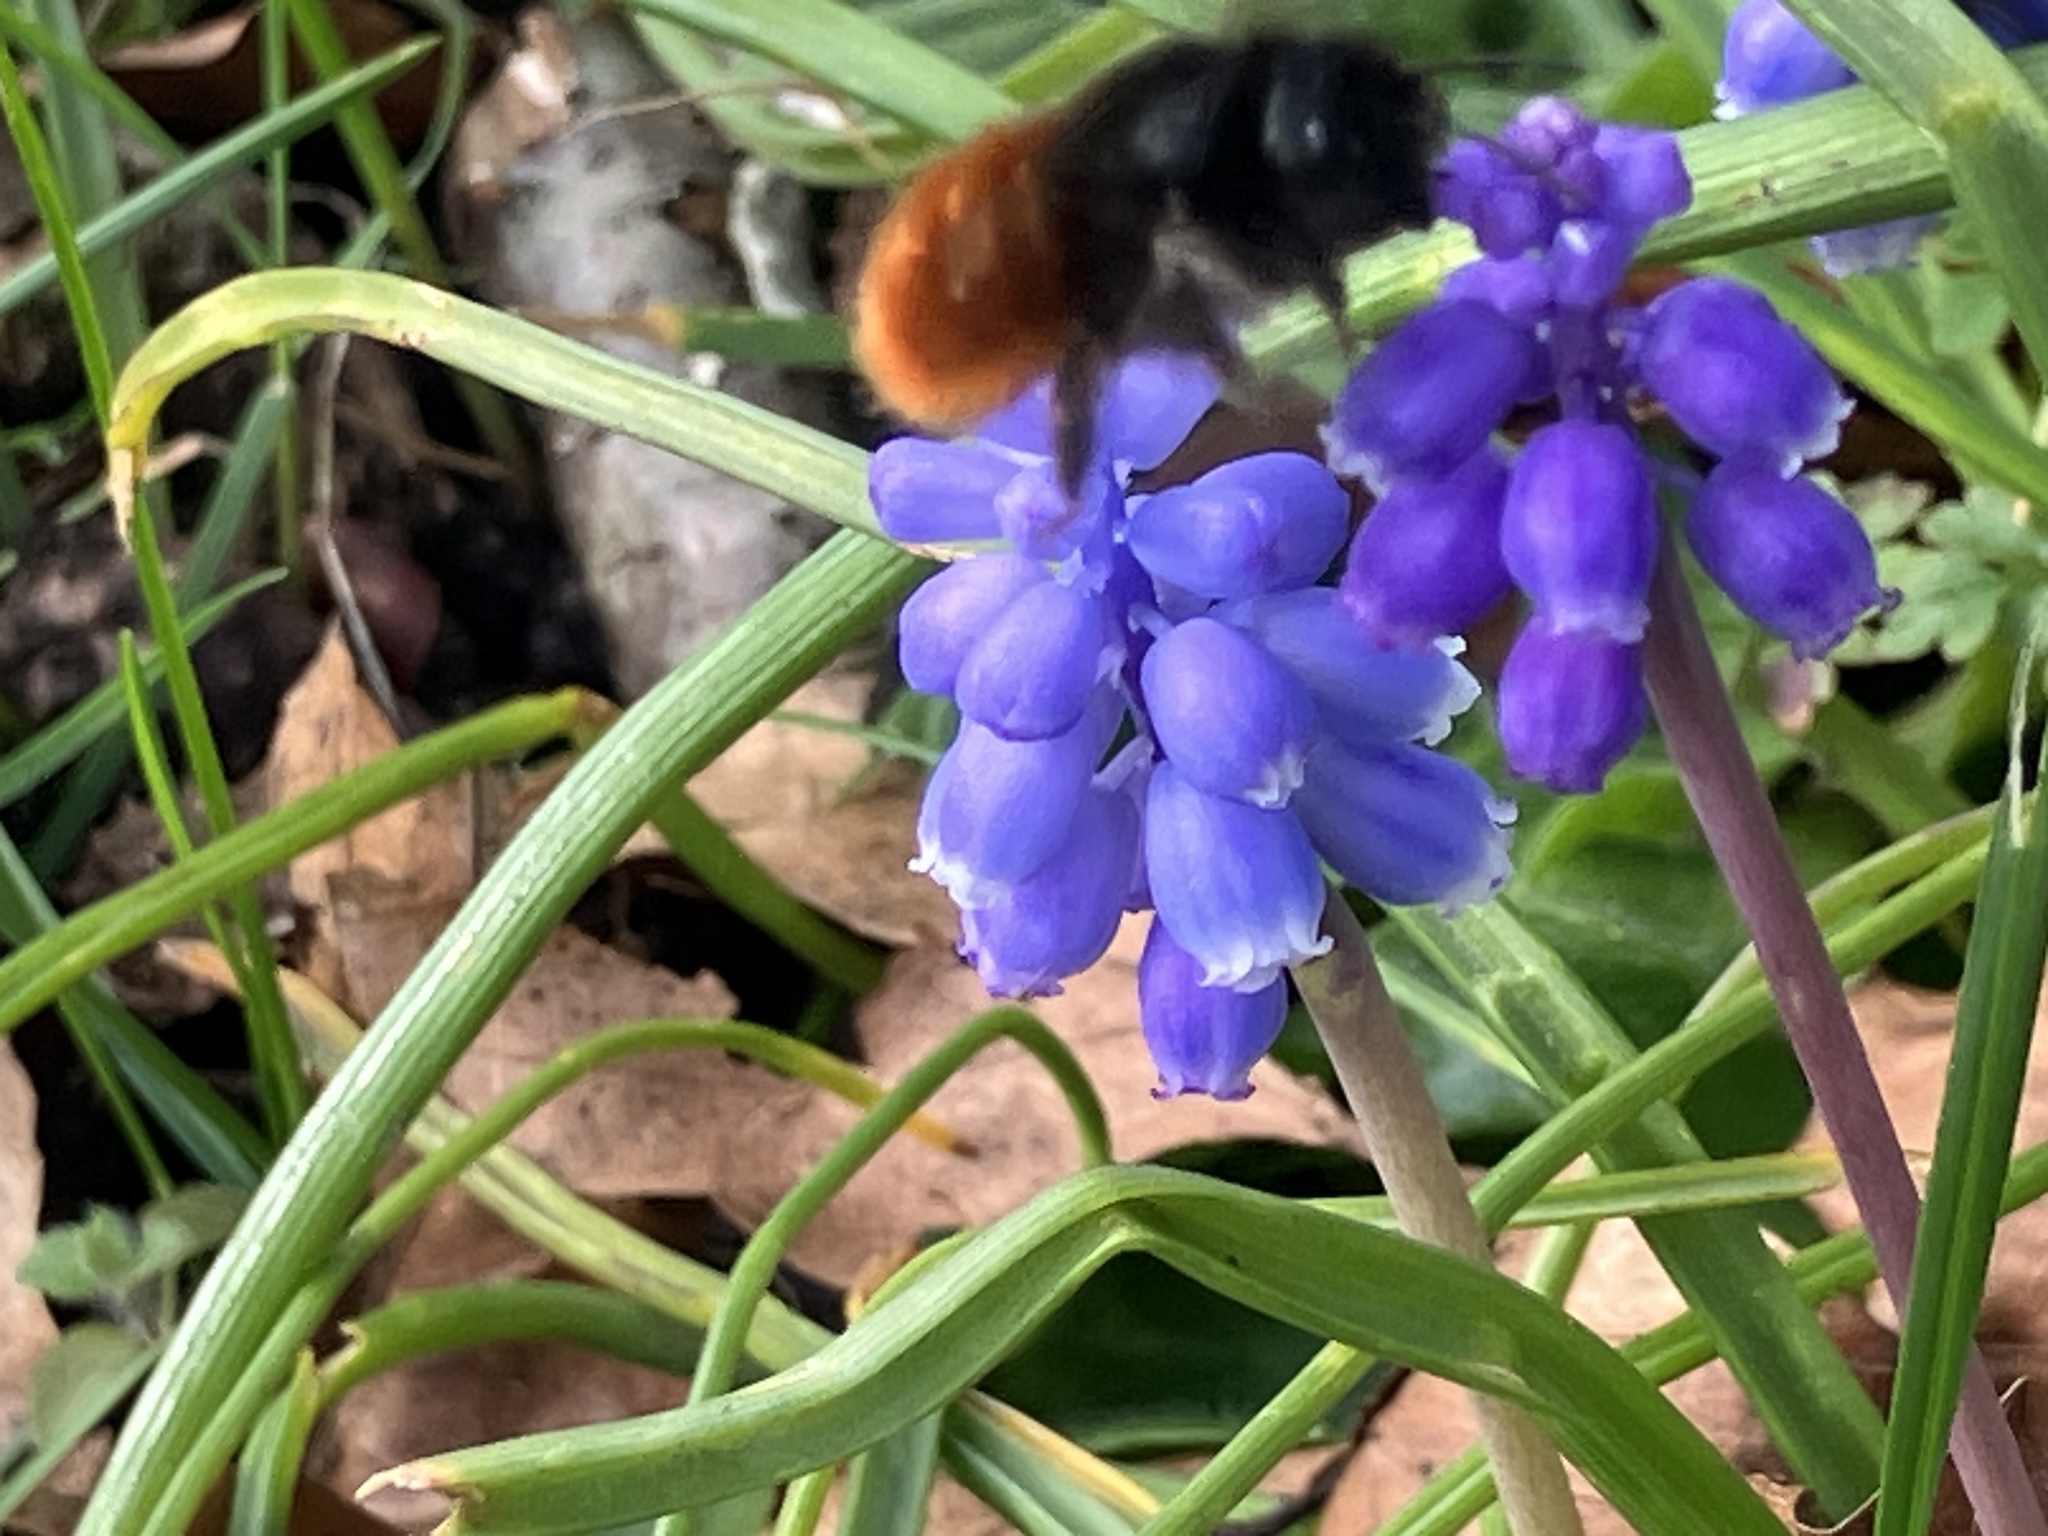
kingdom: Animalia
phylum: Arthropoda
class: Insecta
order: Hymenoptera
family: Megachilidae
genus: Osmia
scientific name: Osmia cornuta
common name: Mason bee
